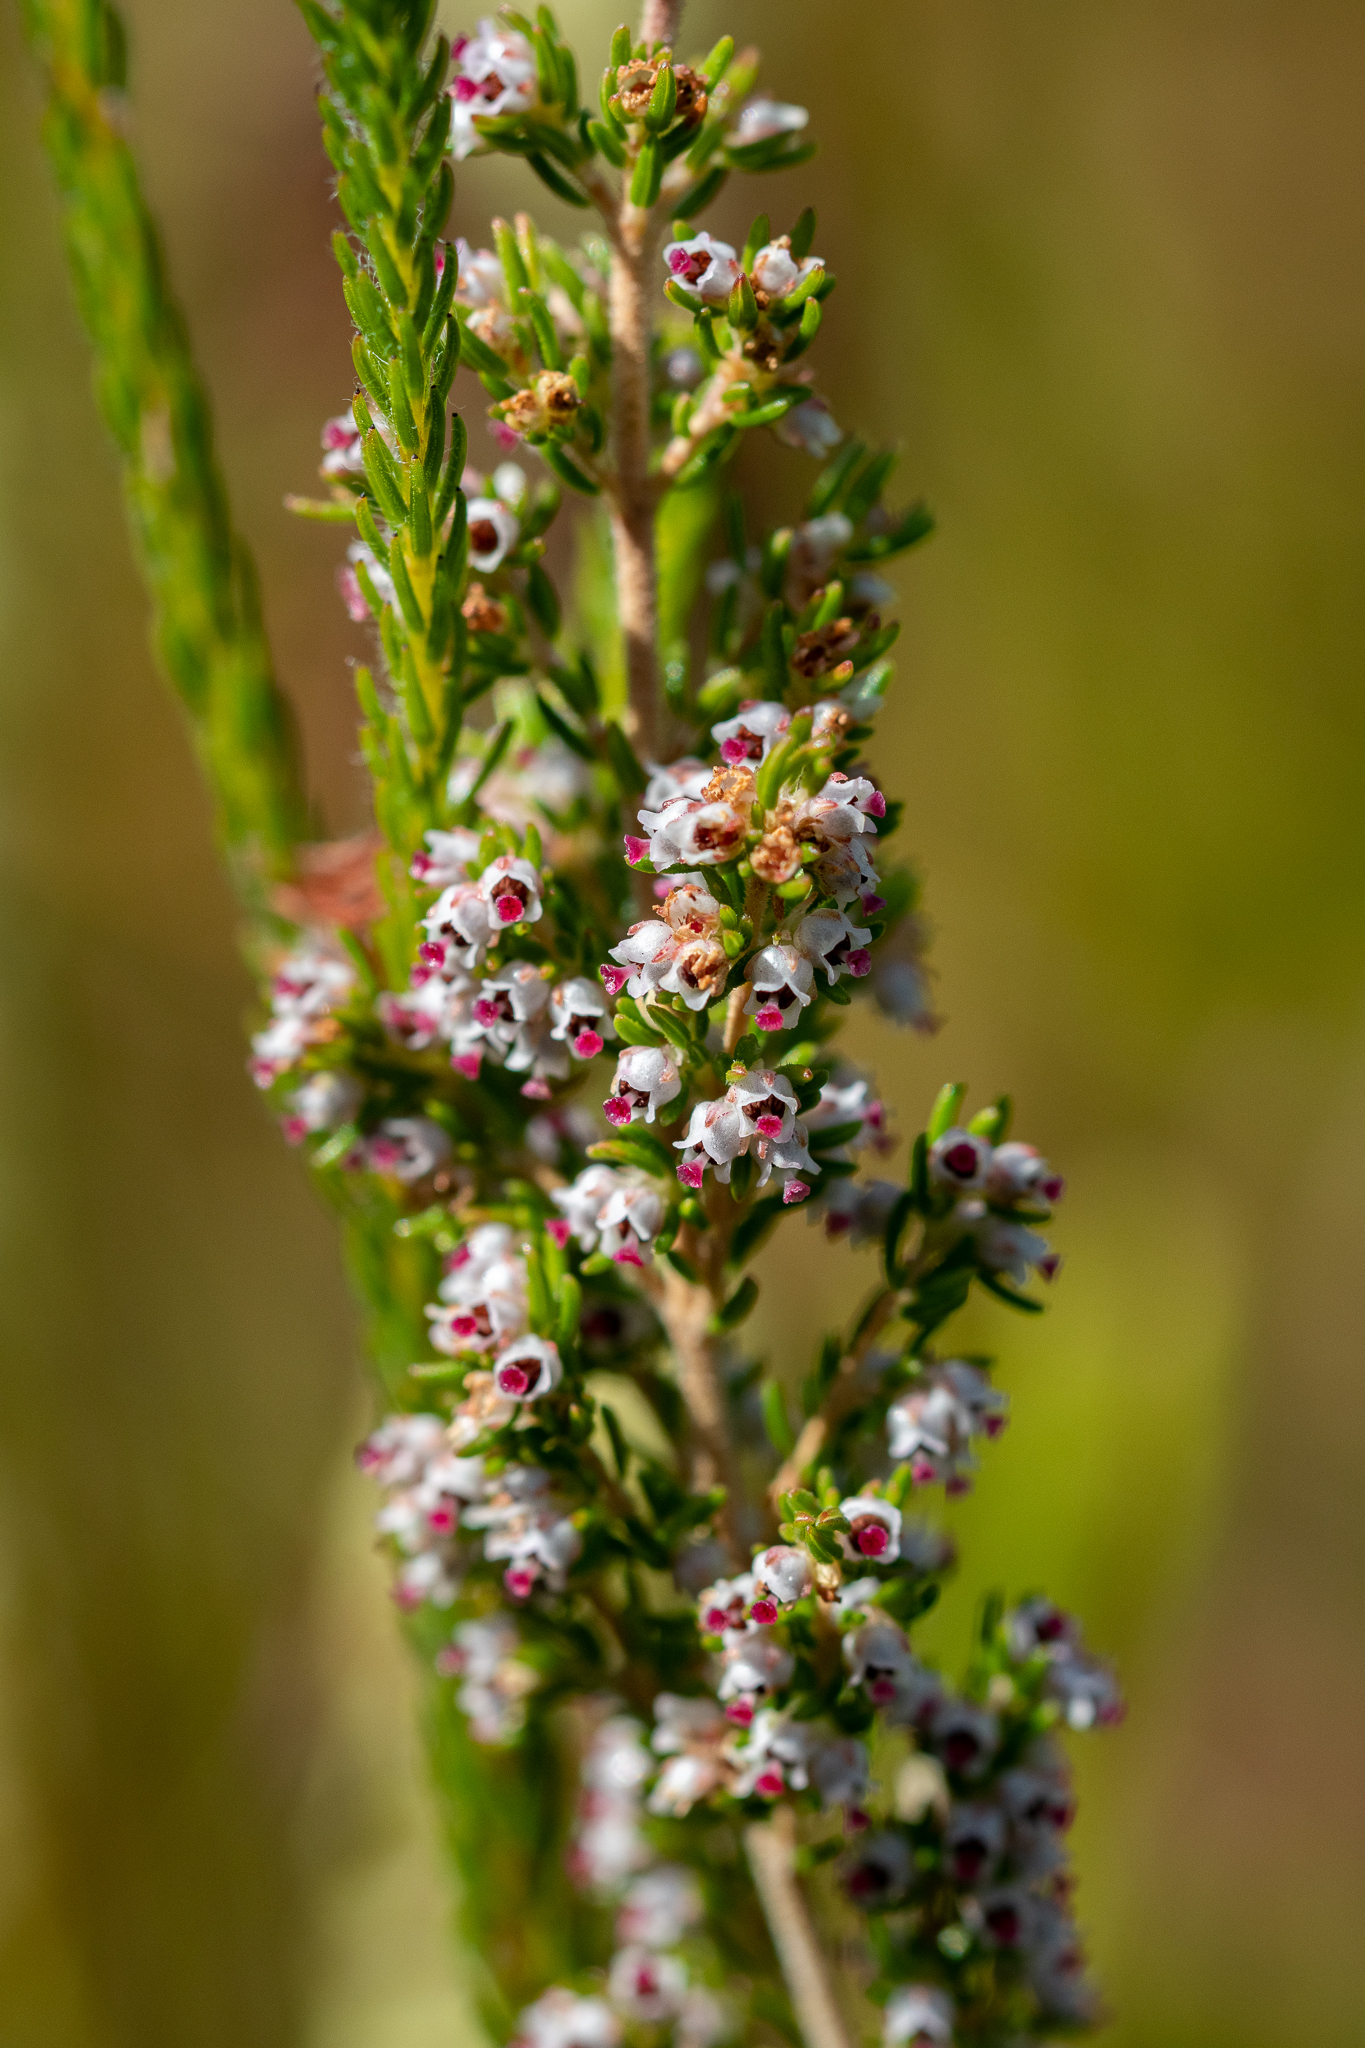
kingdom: Plantae
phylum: Tracheophyta
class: Magnoliopsida
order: Ericales
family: Ericaceae
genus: Erica
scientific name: Erica hispidula
